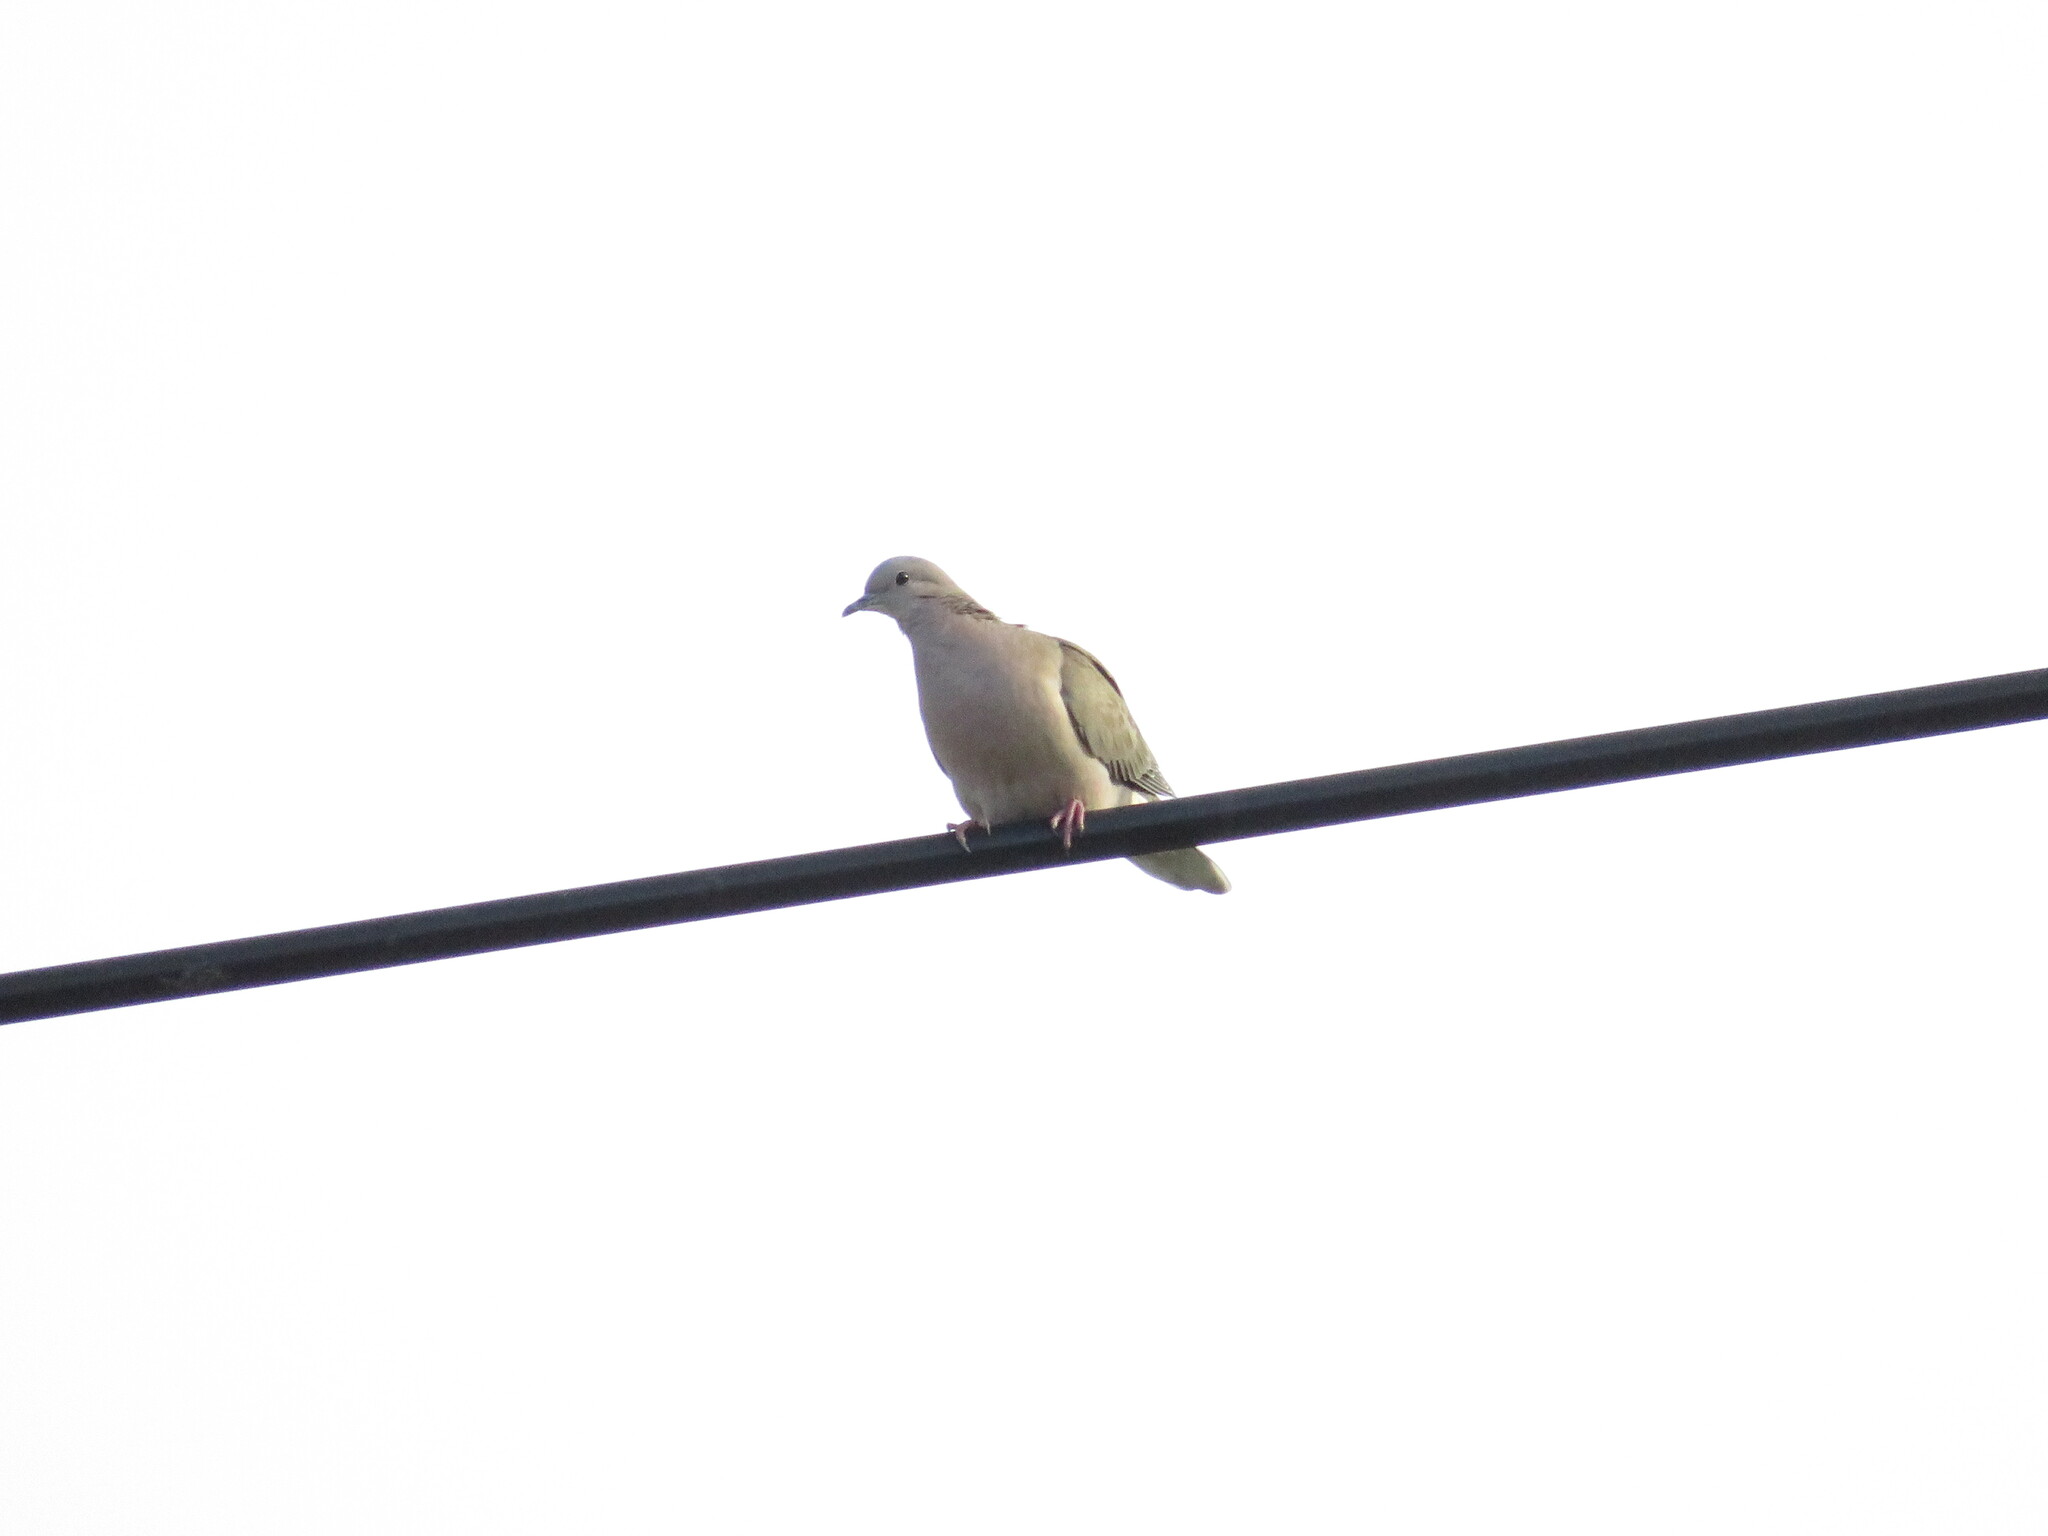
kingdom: Animalia
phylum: Chordata
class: Aves
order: Columbiformes
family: Columbidae
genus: Zenaida
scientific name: Zenaida auriculata
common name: Eared dove
